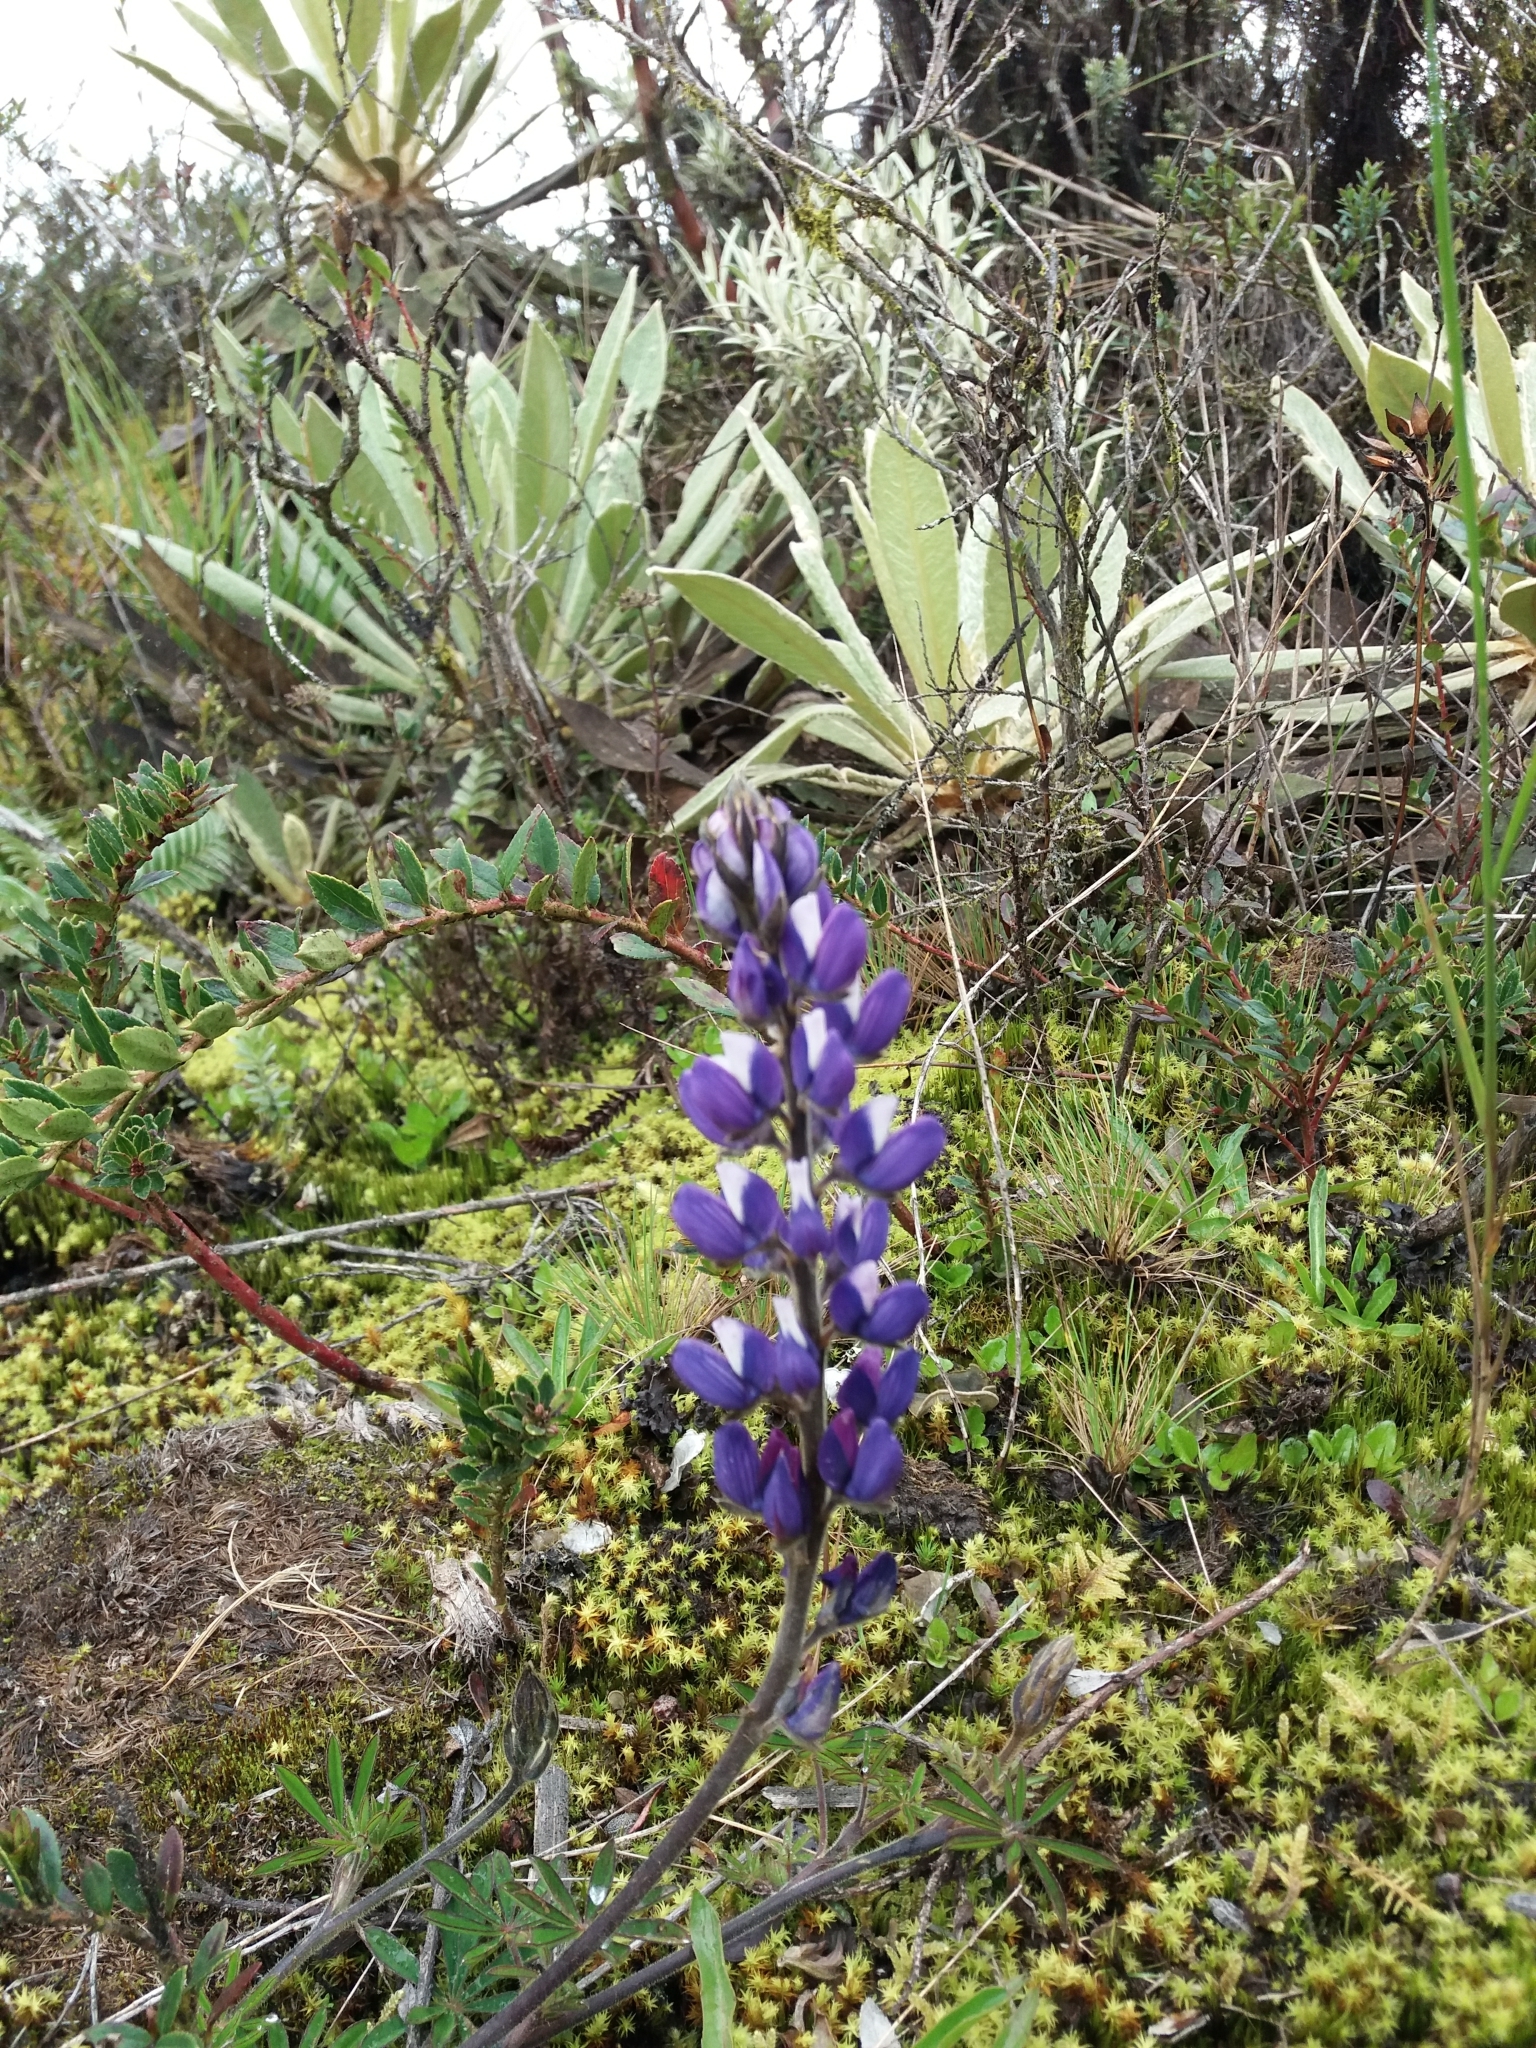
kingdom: Plantae
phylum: Tracheophyta
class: Magnoliopsida
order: Fabales
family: Fabaceae
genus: Lupinus
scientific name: Lupinus bogotensis
